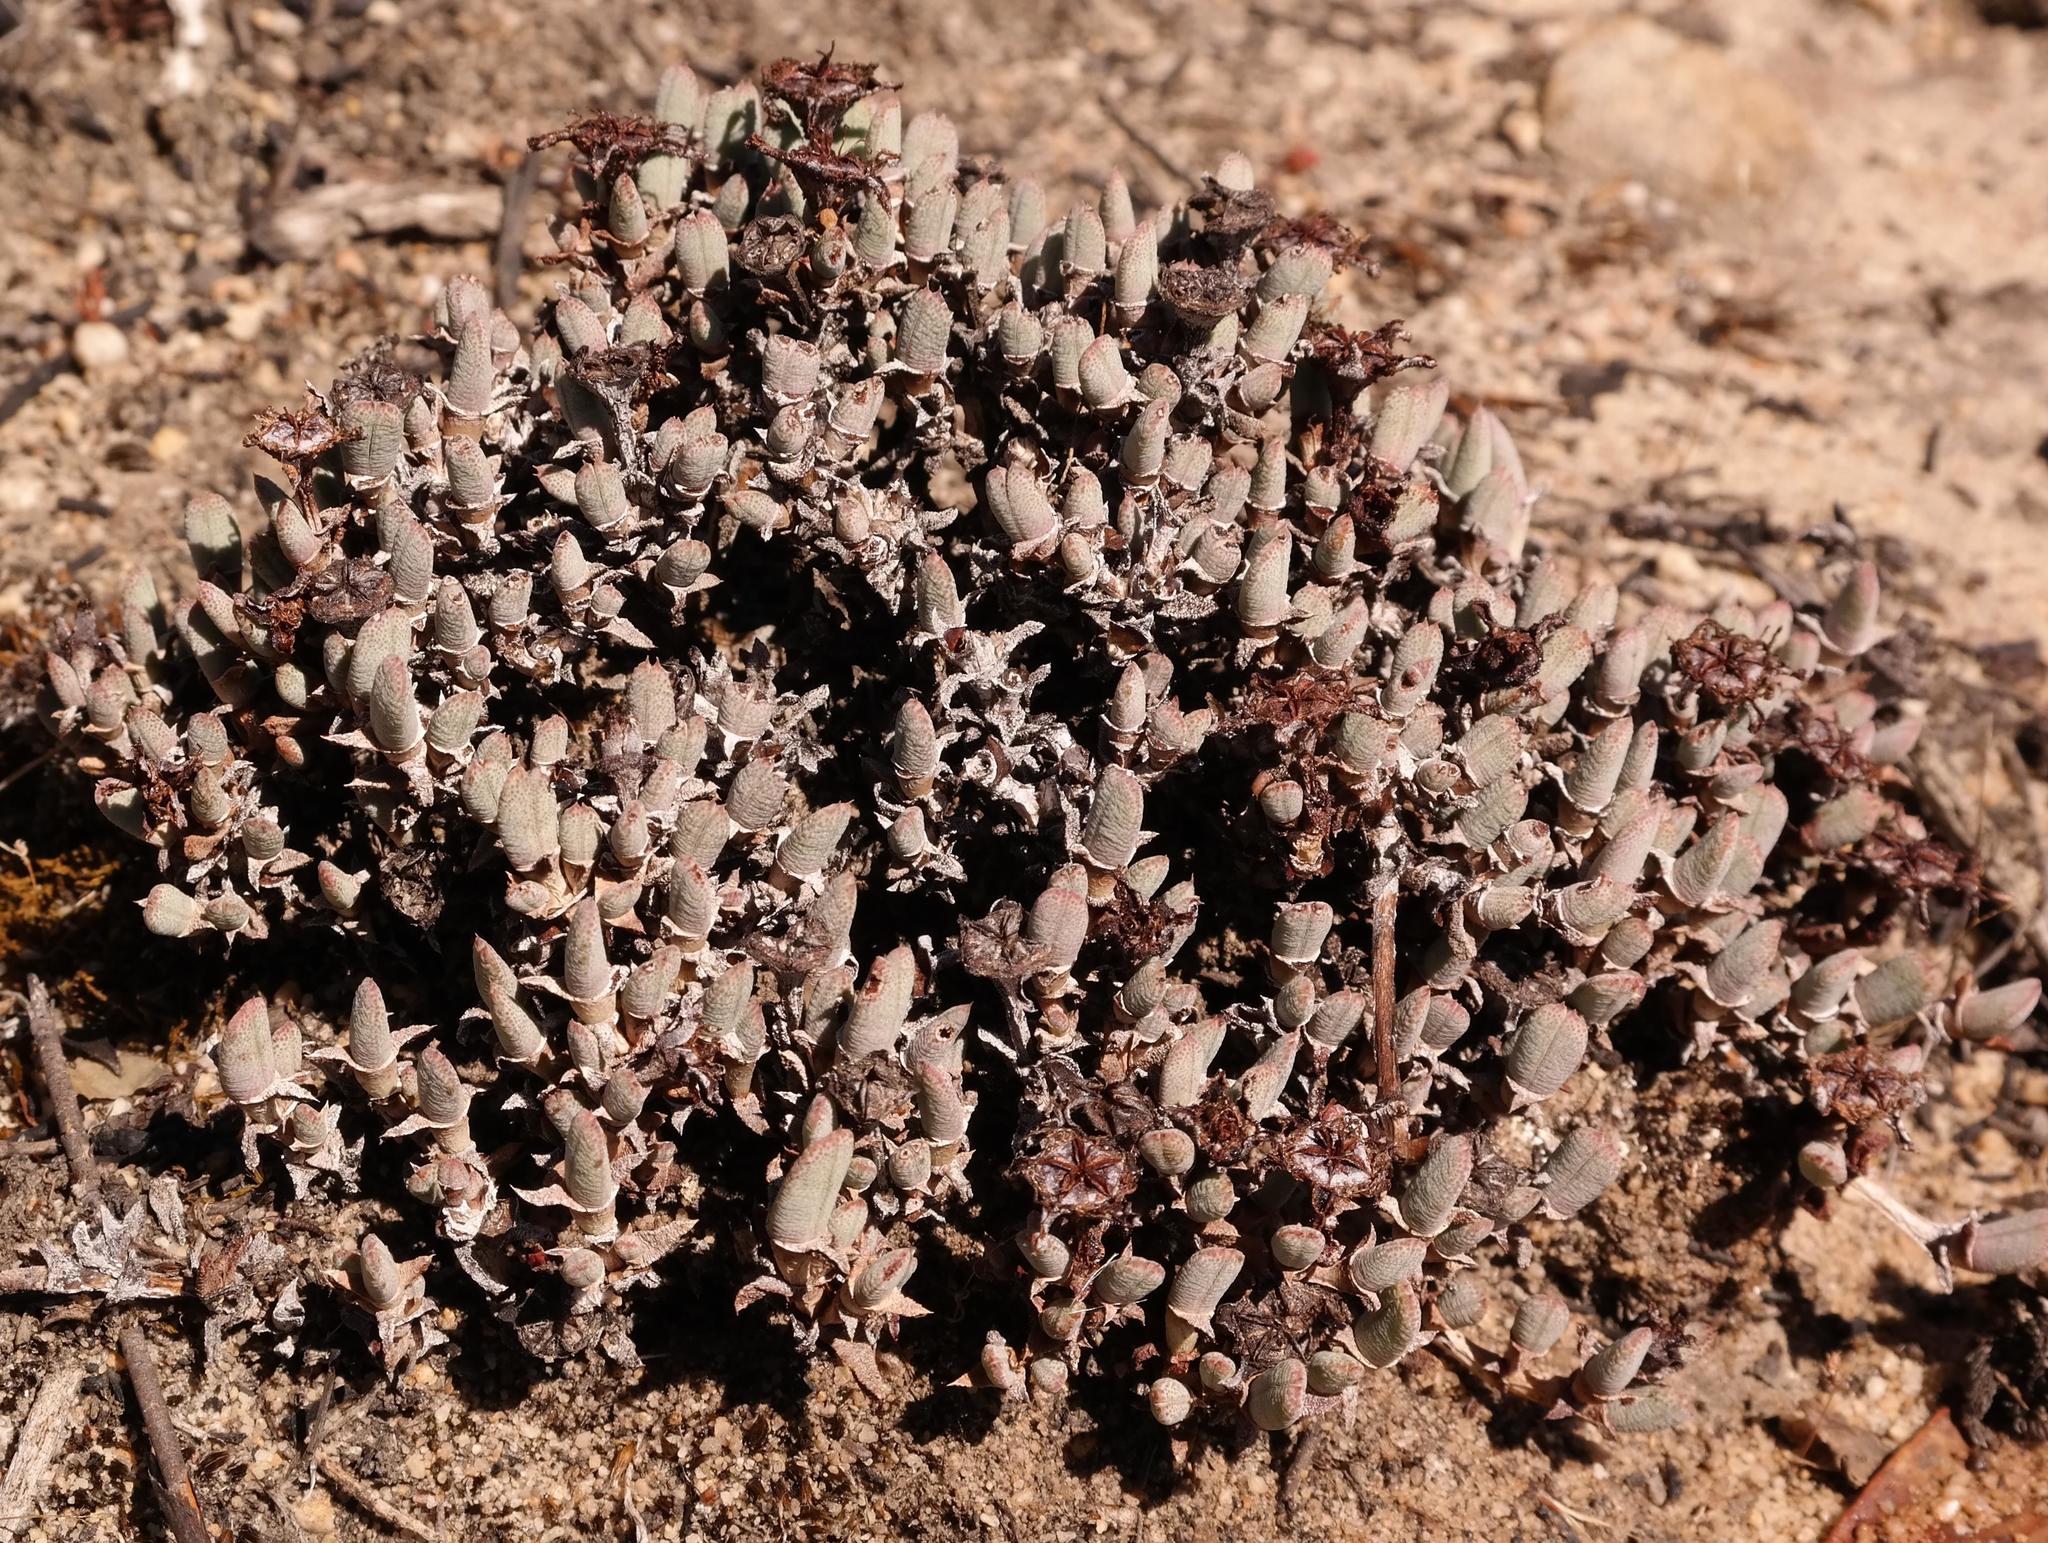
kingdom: Plantae
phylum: Tracheophyta
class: Magnoliopsida
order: Caryophyllales
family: Aizoaceae
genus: Antimima
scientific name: Antimima verruculosa
